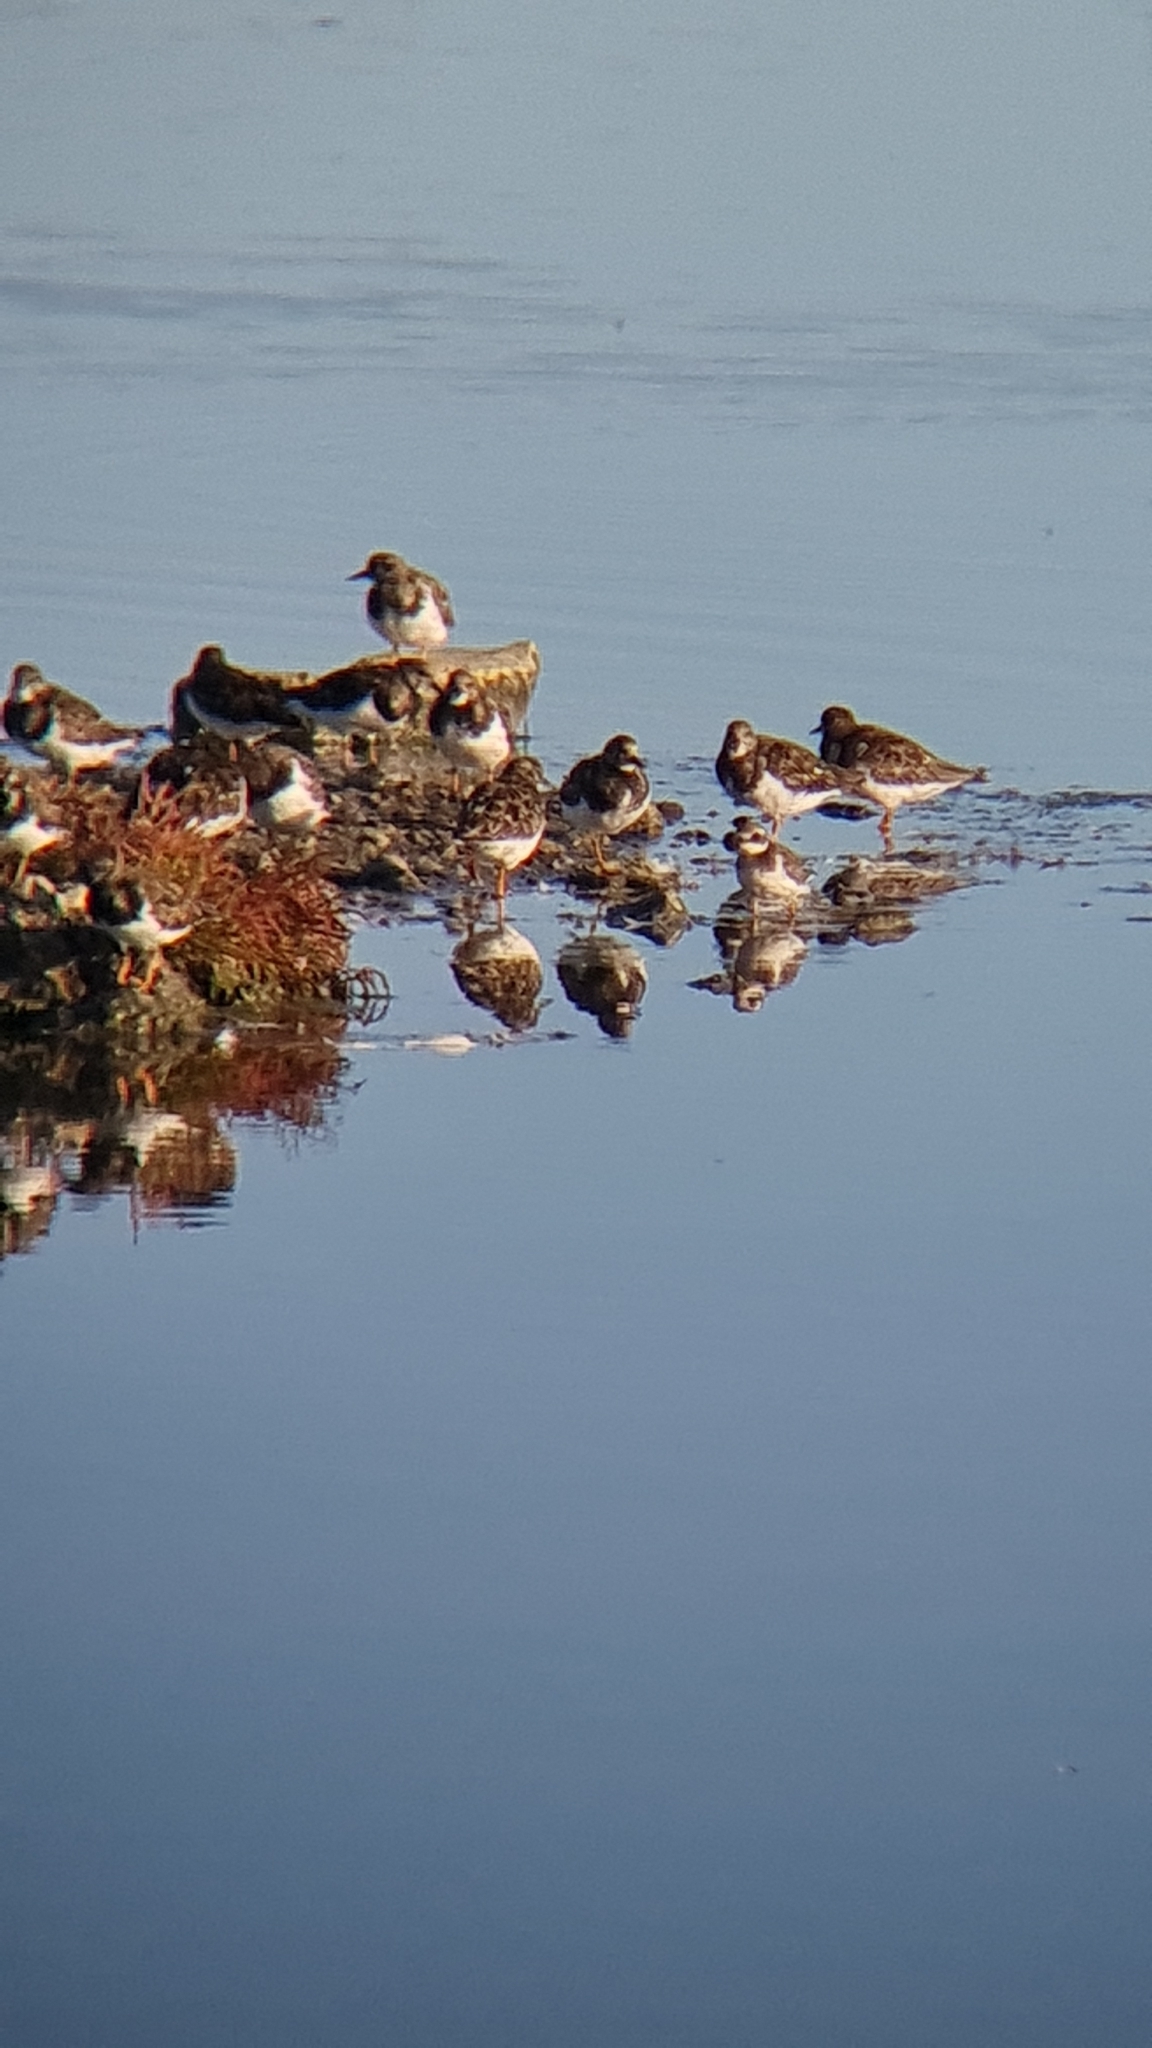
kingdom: Animalia
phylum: Chordata
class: Aves
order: Charadriiformes
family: Scolopacidae
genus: Arenaria
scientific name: Arenaria interpres
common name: Ruddy turnstone
